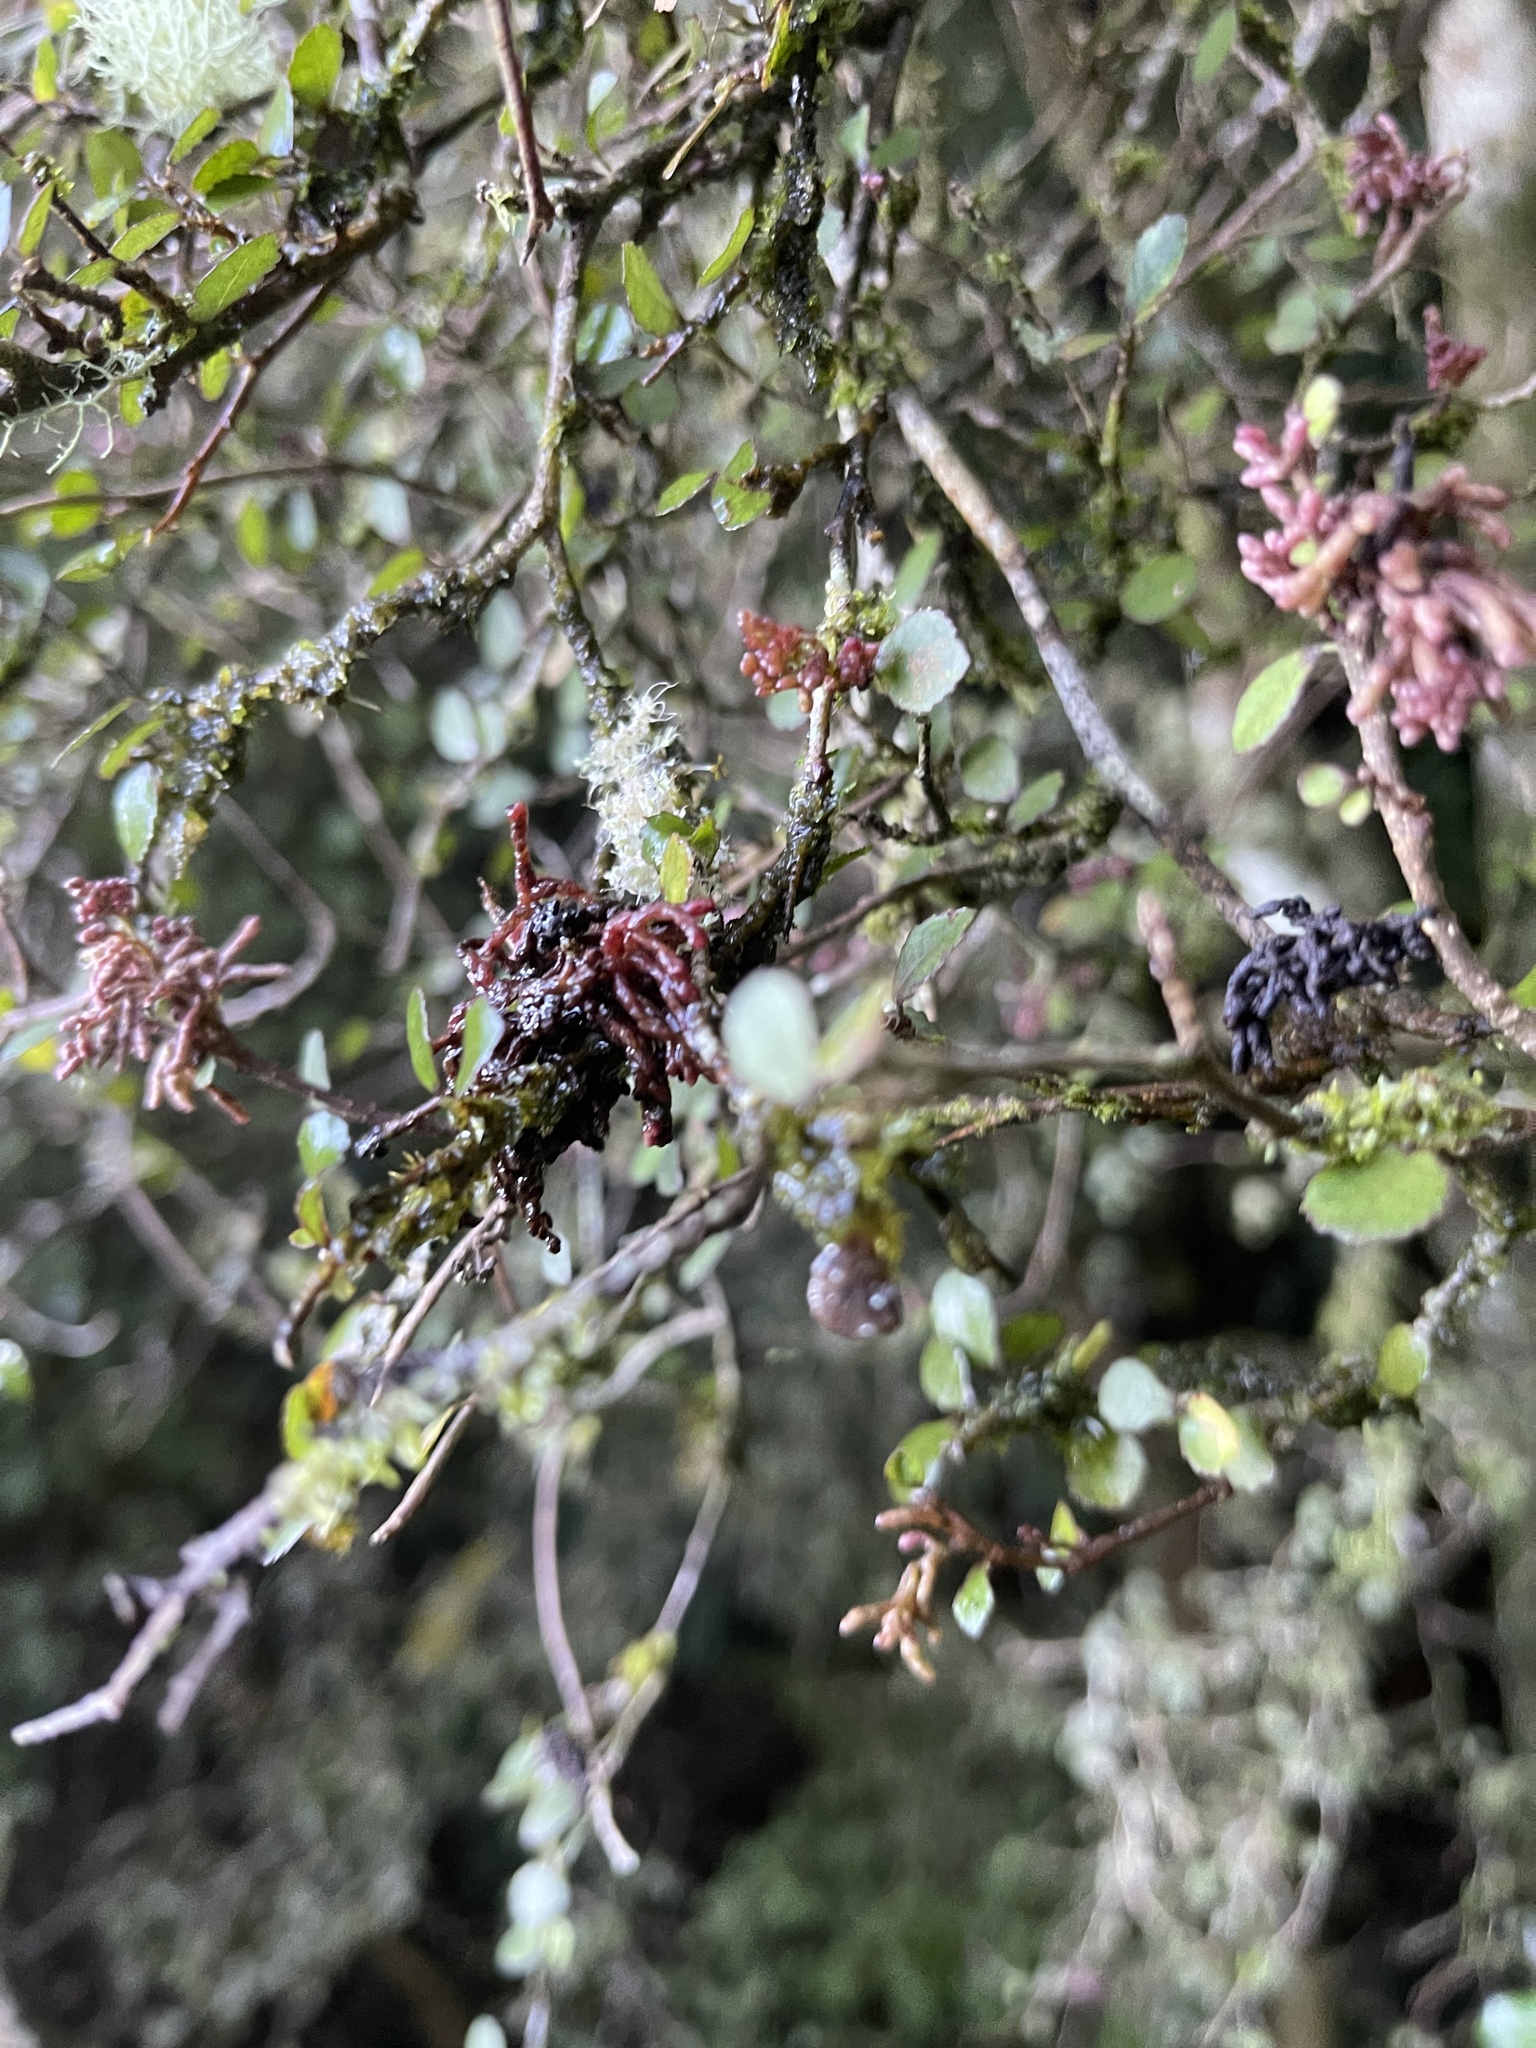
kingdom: Plantae
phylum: Tracheophyta
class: Magnoliopsida
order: Rosales
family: Moraceae
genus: Paratrophis
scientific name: Paratrophis microphylla
